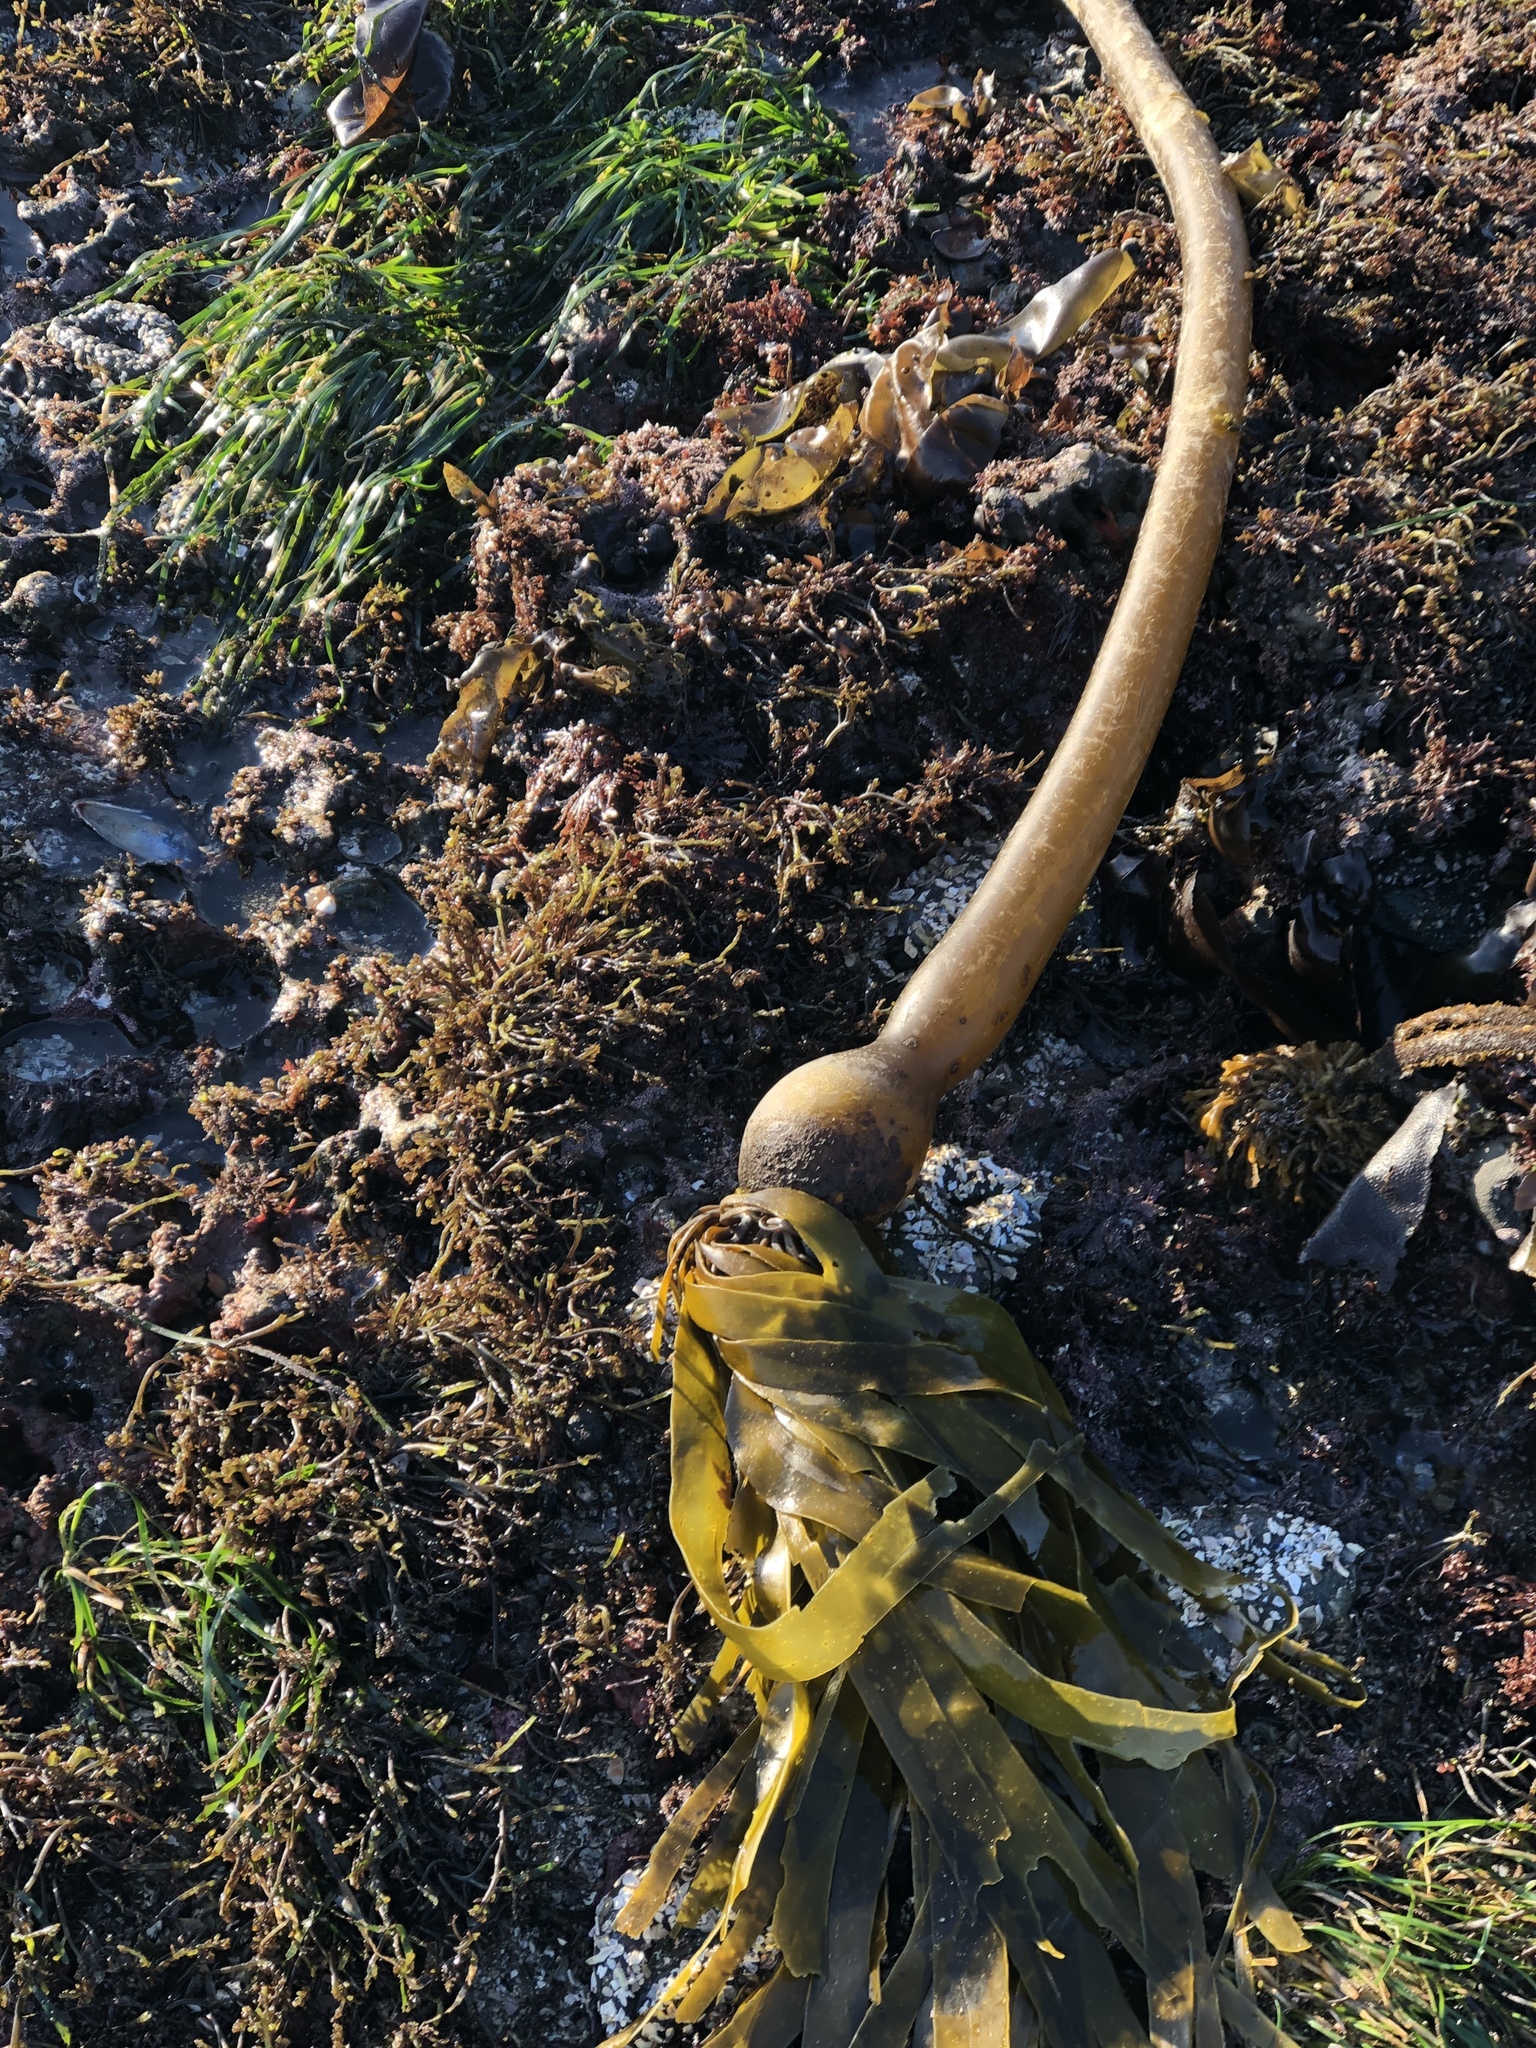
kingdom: Chromista
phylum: Ochrophyta
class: Phaeophyceae
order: Laminariales
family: Laminariaceae
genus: Nereocystis
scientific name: Nereocystis luetkeana
